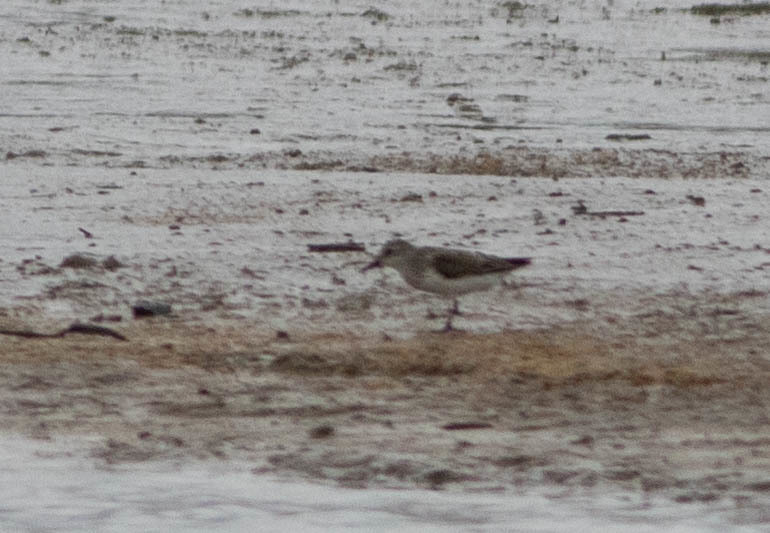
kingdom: Animalia
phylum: Chordata
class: Aves
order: Charadriiformes
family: Scolopacidae
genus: Calidris
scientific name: Calidris minutilla
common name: Least sandpiper
